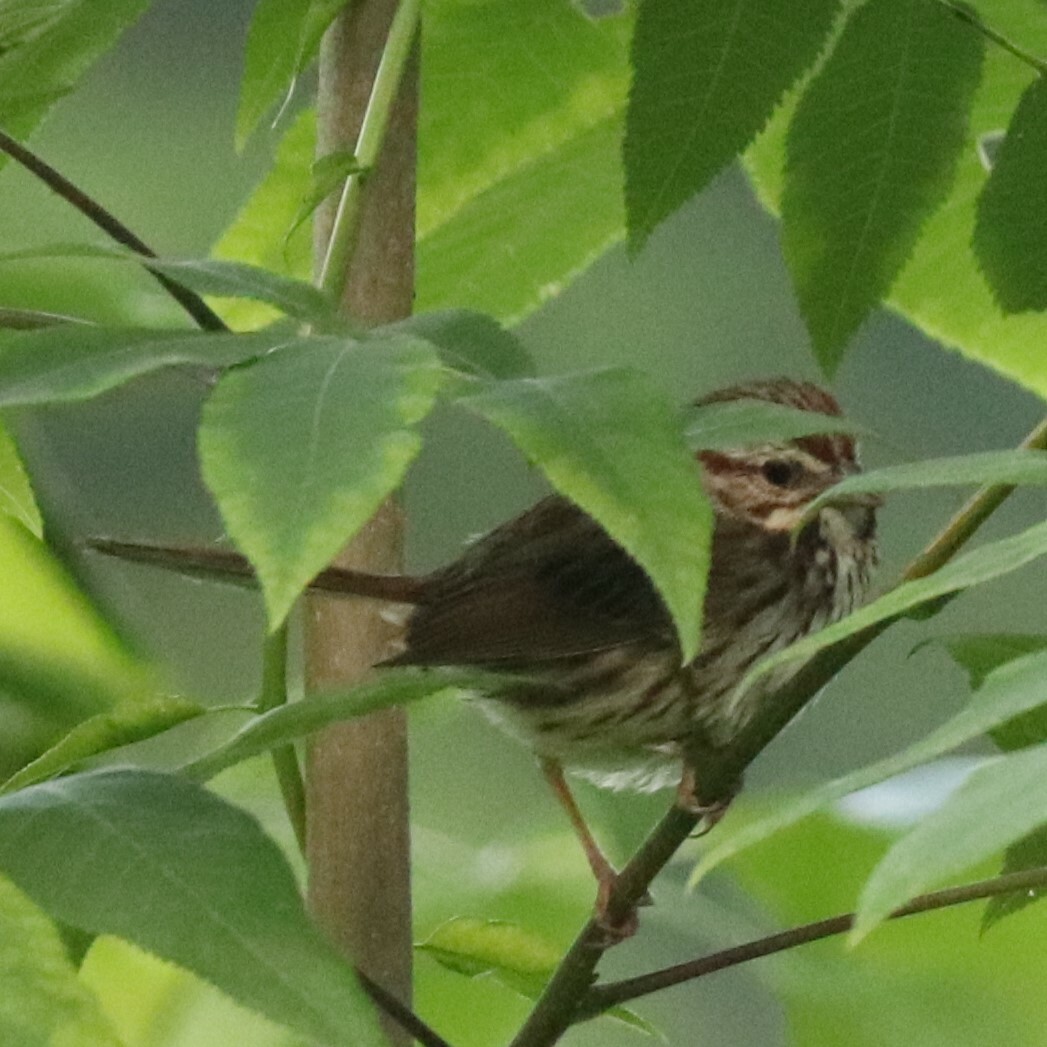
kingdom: Animalia
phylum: Chordata
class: Aves
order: Passeriformes
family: Passerellidae
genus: Melospiza
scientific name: Melospiza melodia
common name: Song sparrow
